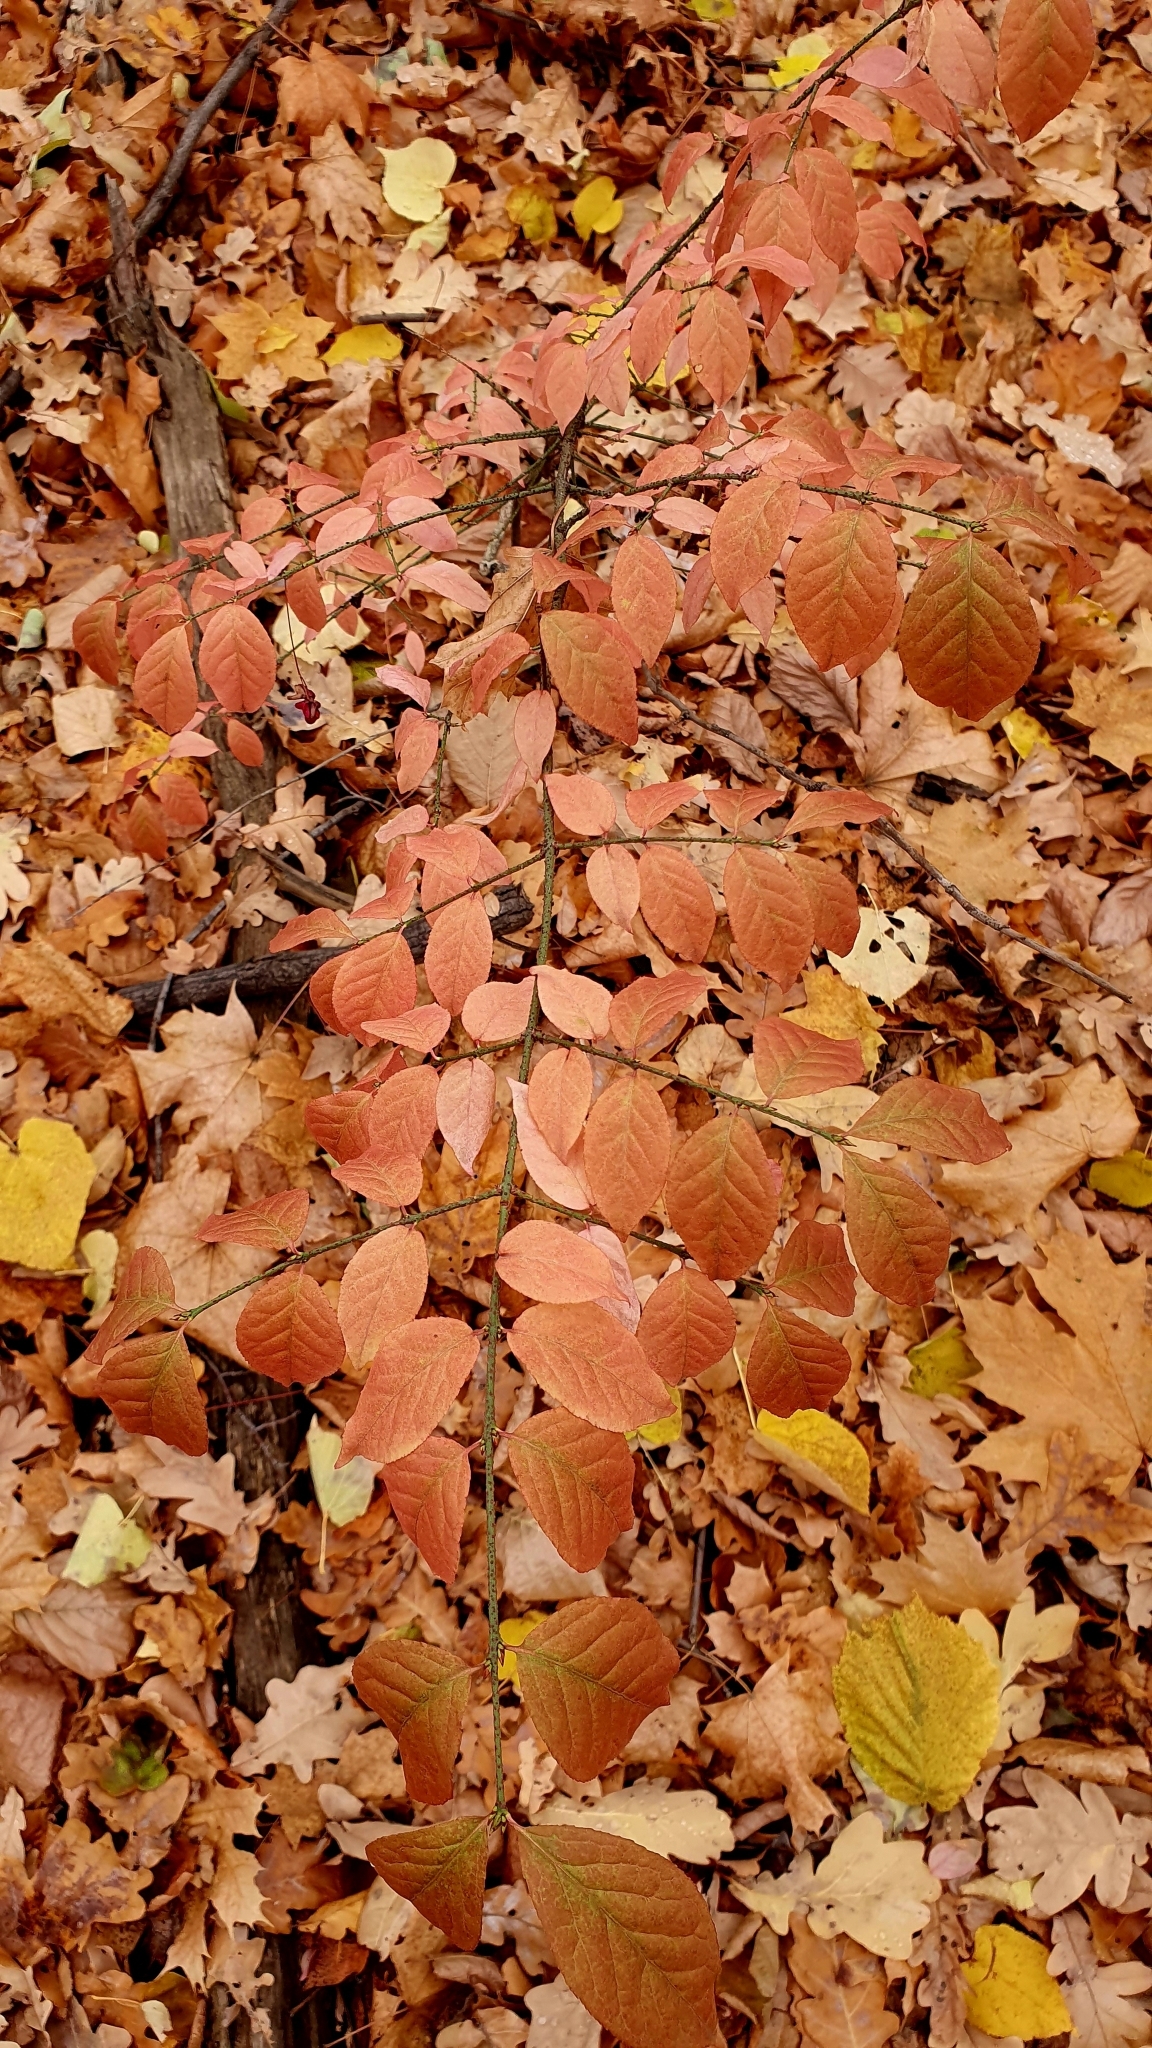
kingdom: Plantae
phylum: Tracheophyta
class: Magnoliopsida
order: Celastrales
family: Celastraceae
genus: Euonymus
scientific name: Euonymus verrucosus
